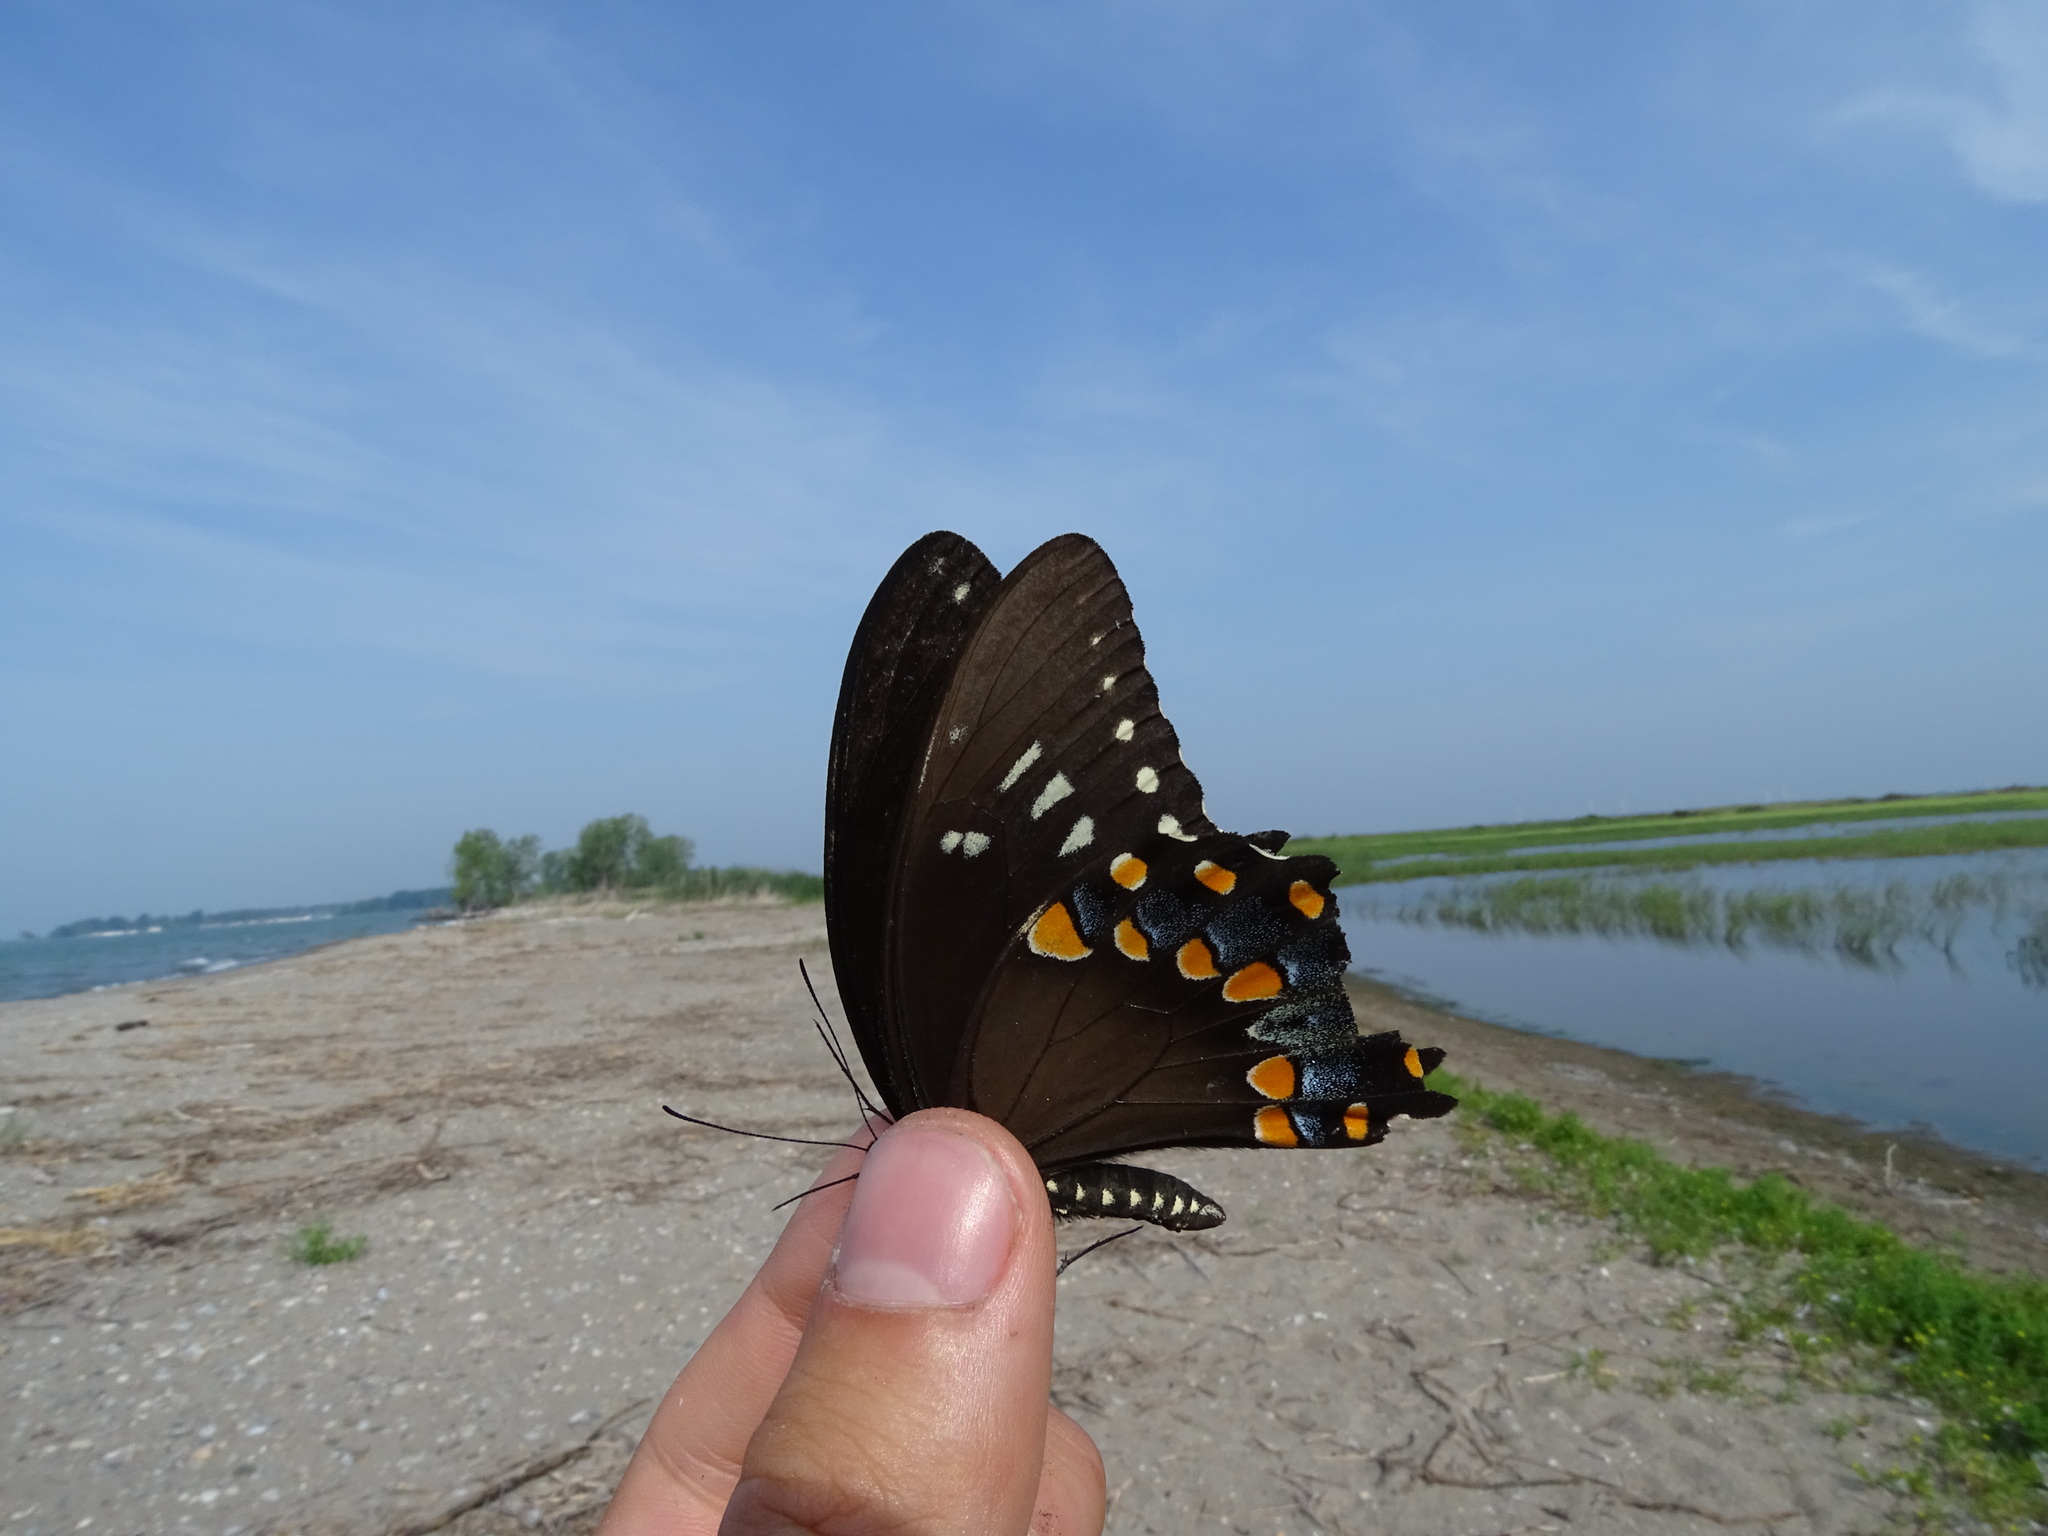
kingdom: Animalia
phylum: Arthropoda
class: Insecta
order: Lepidoptera
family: Papilionidae
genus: Papilio
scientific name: Papilio troilus
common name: Spicebush swallowtail
